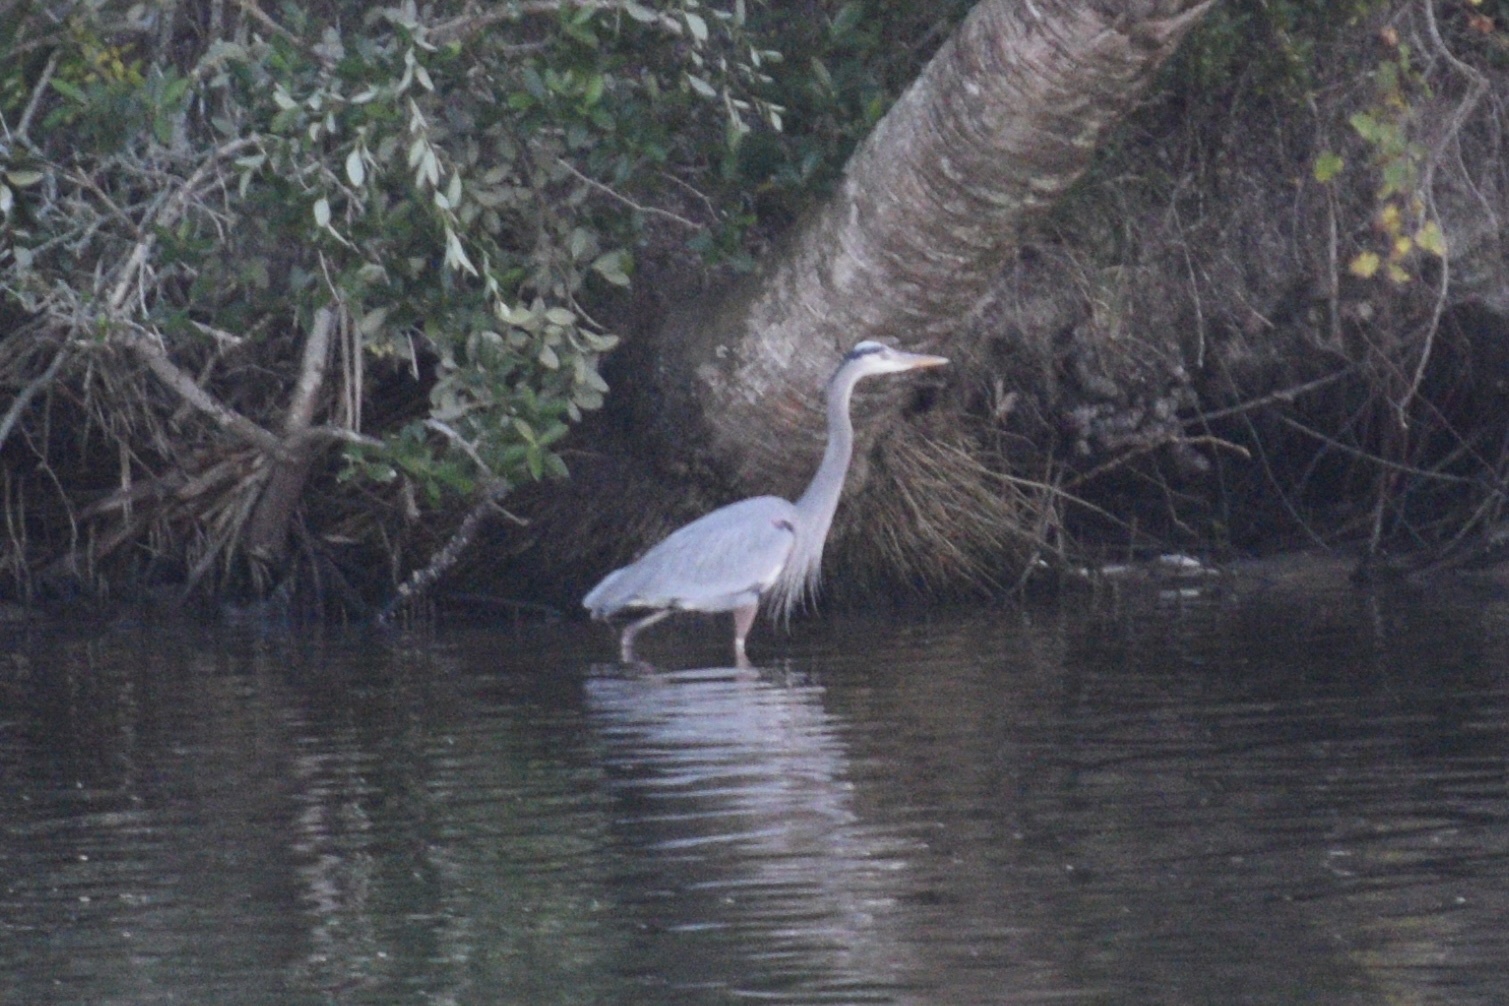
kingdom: Animalia
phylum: Chordata
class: Aves
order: Pelecaniformes
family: Ardeidae
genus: Ardea
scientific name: Ardea herodias
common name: Great blue heron
